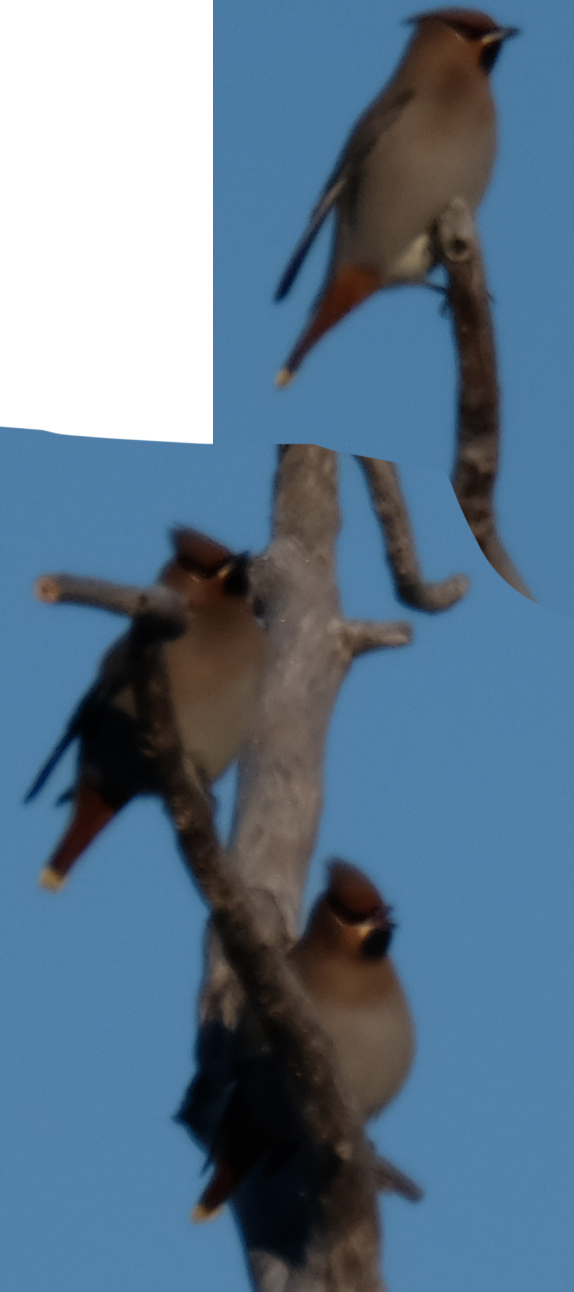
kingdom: Animalia
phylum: Chordata
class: Aves
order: Passeriformes
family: Bombycillidae
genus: Bombycilla
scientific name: Bombycilla garrulus
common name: Bohemian waxwing
